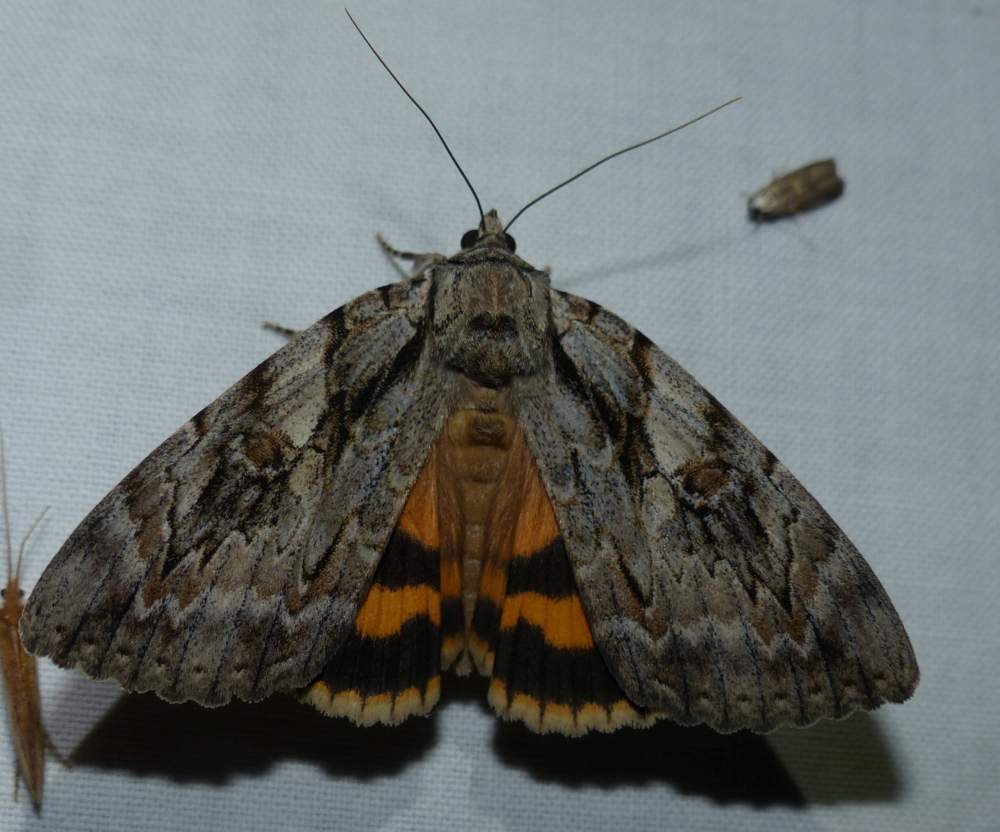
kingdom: Animalia
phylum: Arthropoda
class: Insecta
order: Lepidoptera
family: Erebidae
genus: Catocala
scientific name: Catocala subnata
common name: Youthful underwing
